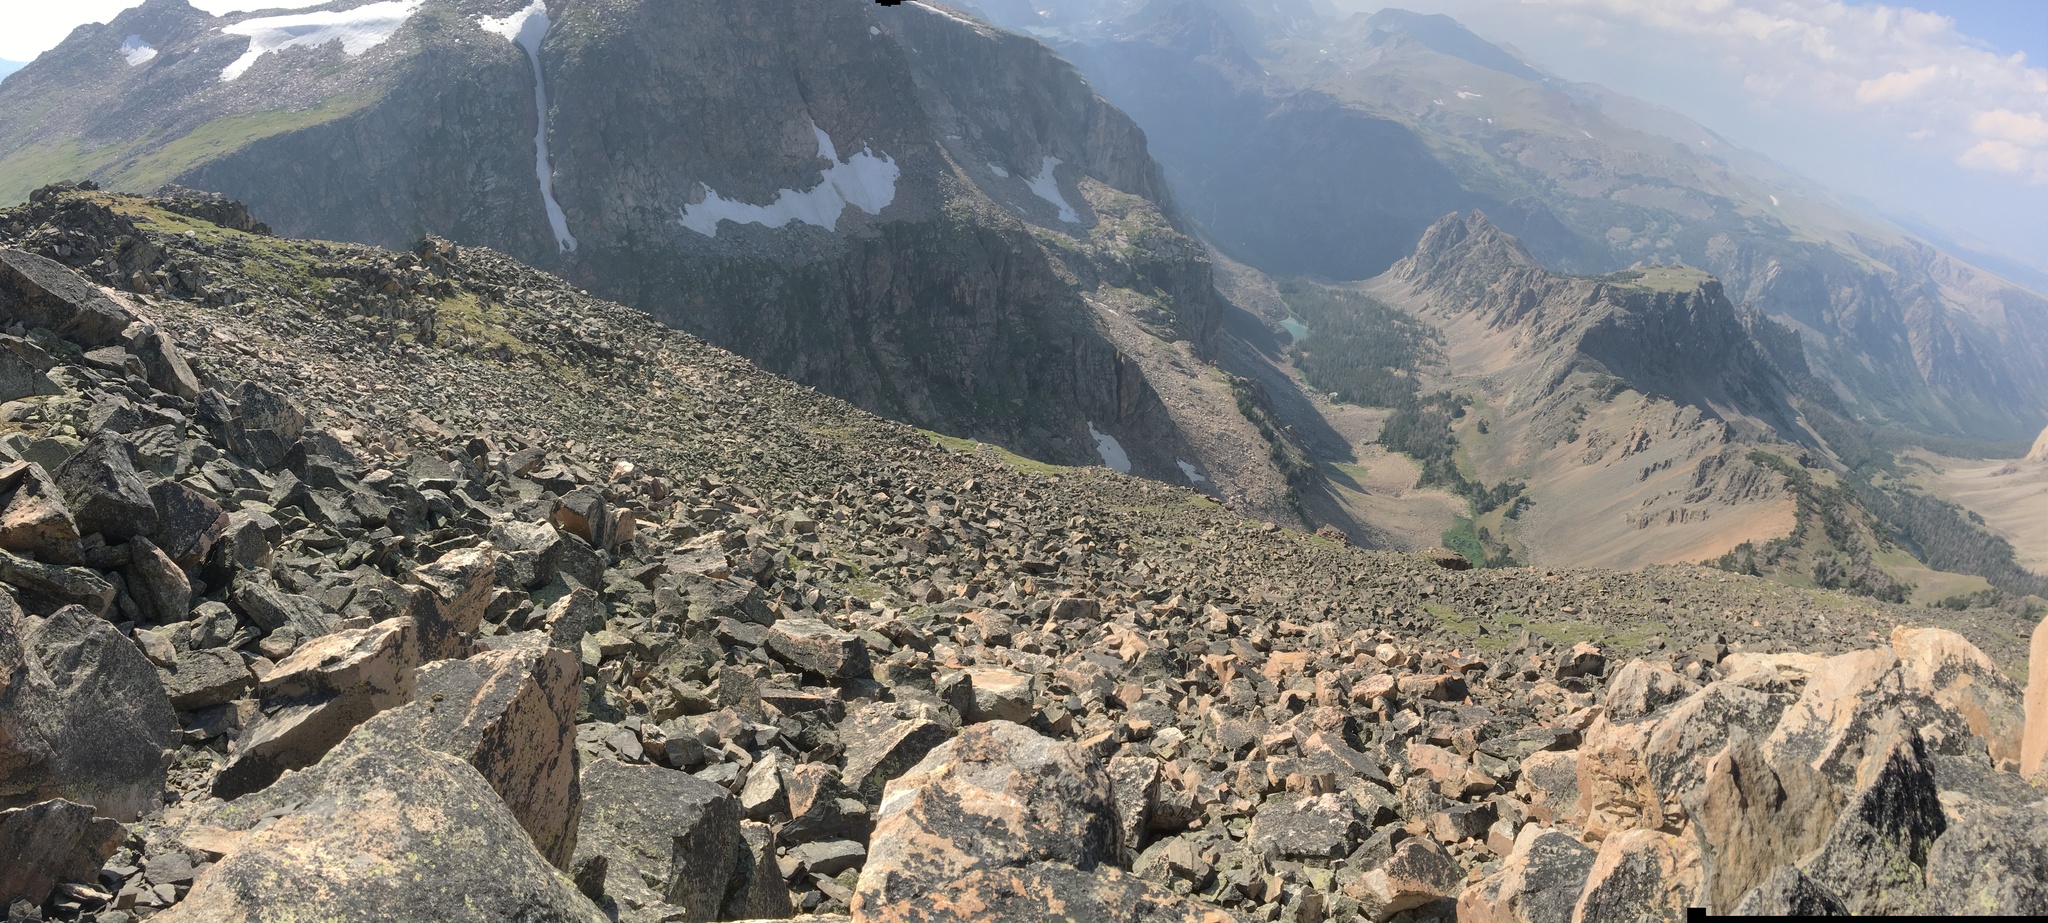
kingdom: Animalia
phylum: Chordata
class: Mammalia
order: Lagomorpha
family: Ochotonidae
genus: Ochotona
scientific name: Ochotona princeps
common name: American pika
